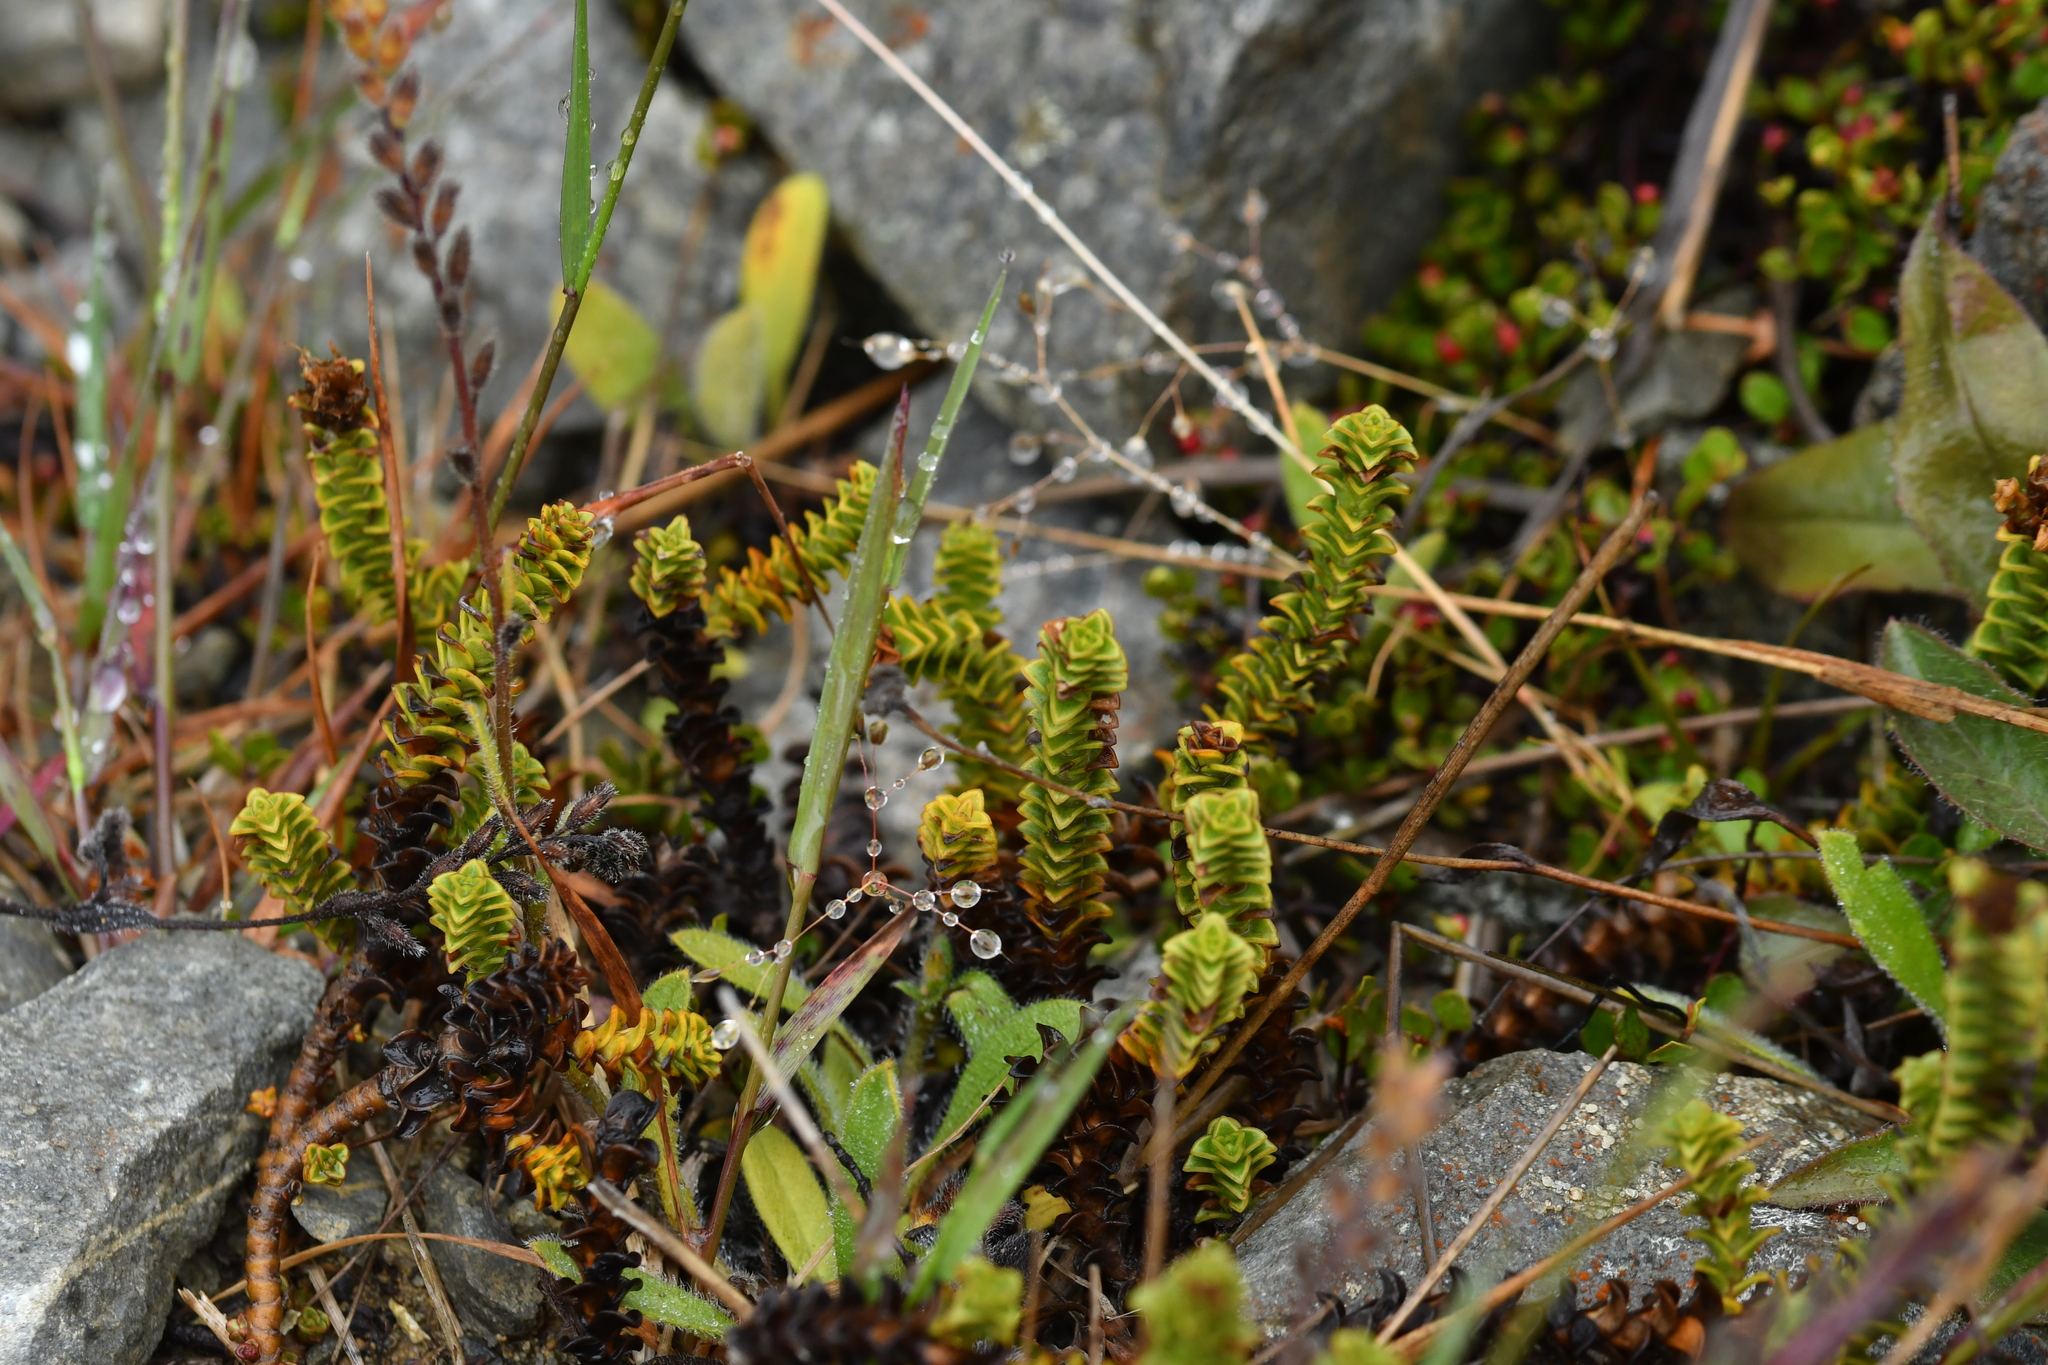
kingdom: Plantae
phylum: Tracheophyta
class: Magnoliopsida
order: Lamiales
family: Plantaginaceae
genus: Veronica
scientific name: Veronica epacridea
